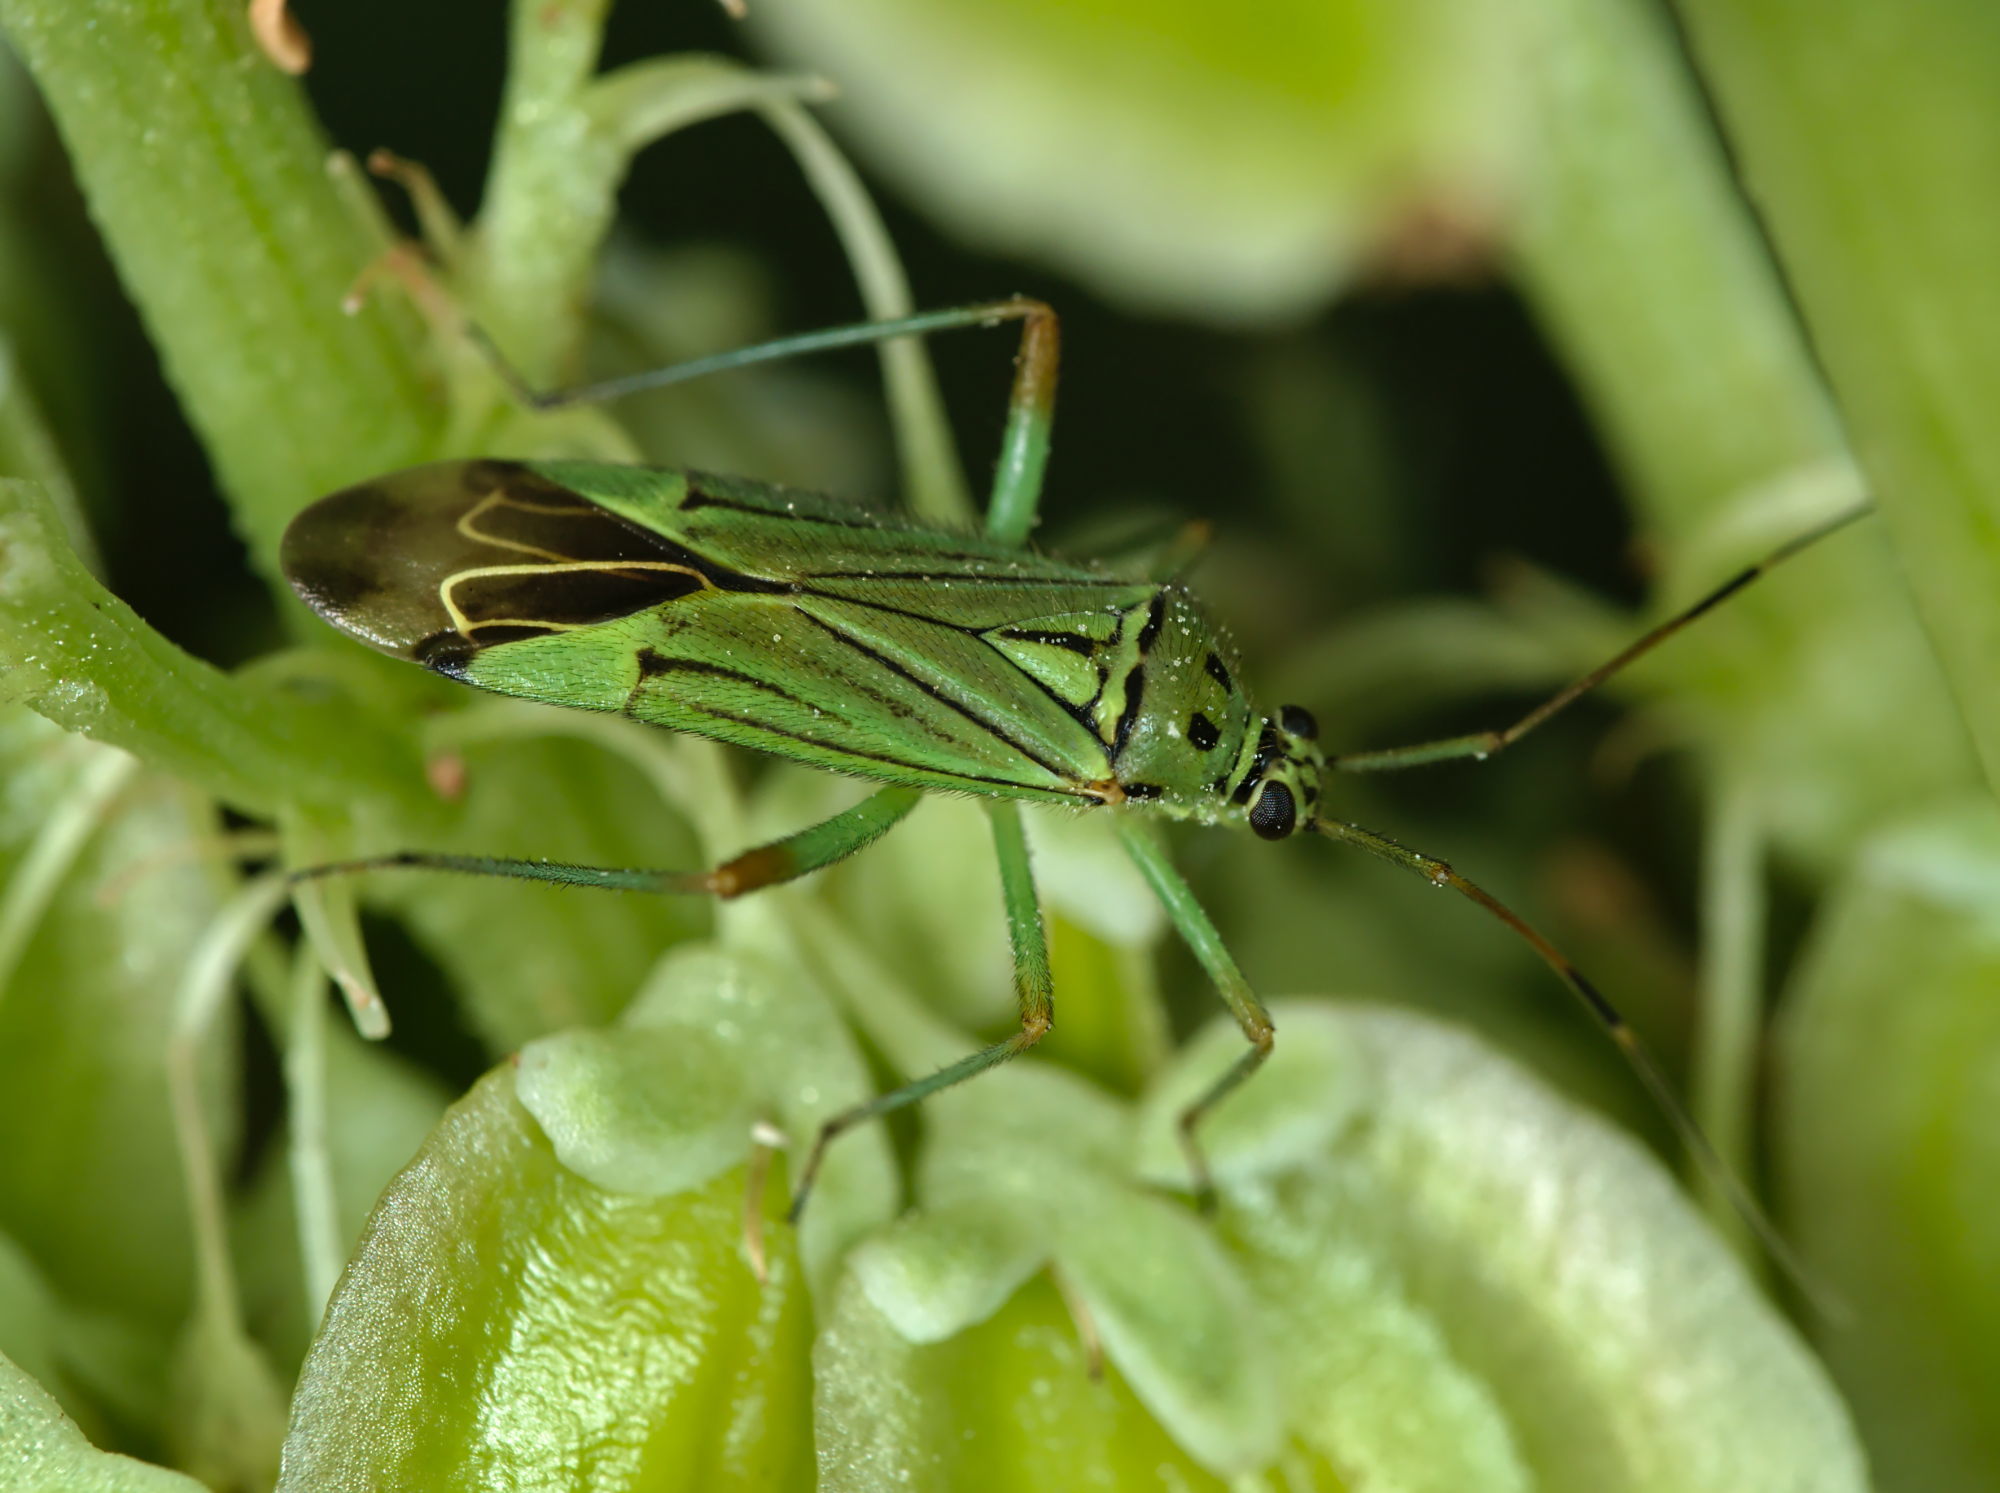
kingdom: Animalia
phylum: Arthropoda
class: Insecta
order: Hemiptera
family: Miridae
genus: Mermitelocerus
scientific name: Mermitelocerus schmidtii
